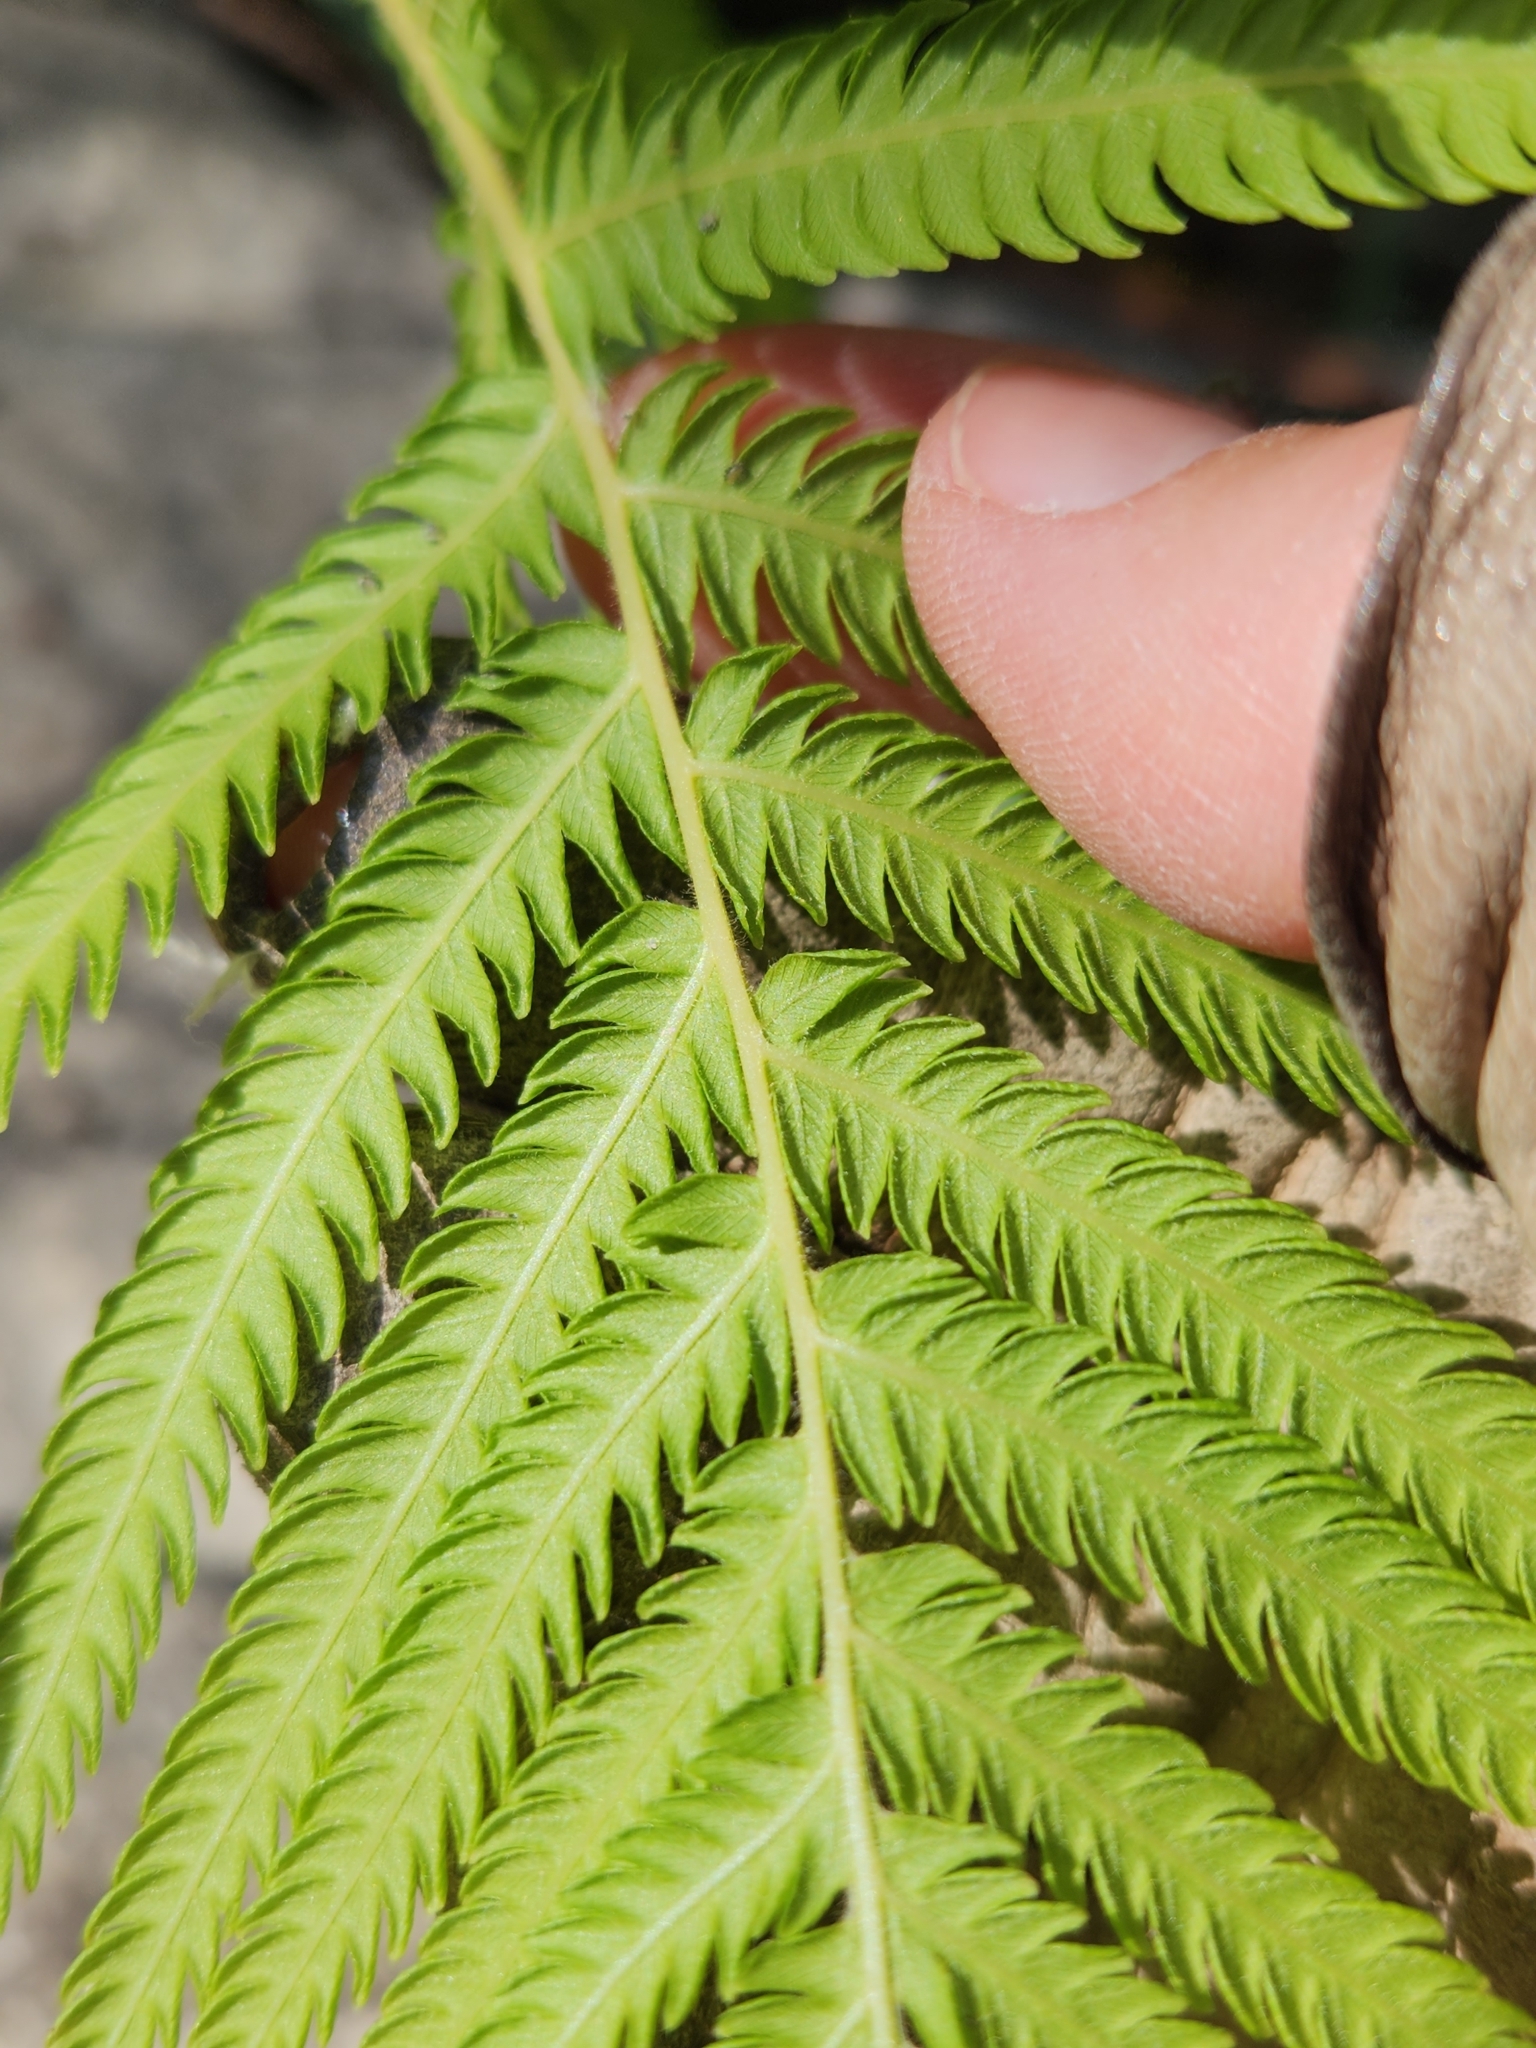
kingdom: Plantae
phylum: Tracheophyta
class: Polypodiopsida
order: Polypodiales
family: Thelypteridaceae
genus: Pelazoneuron
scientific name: Pelazoneuron ovatum
